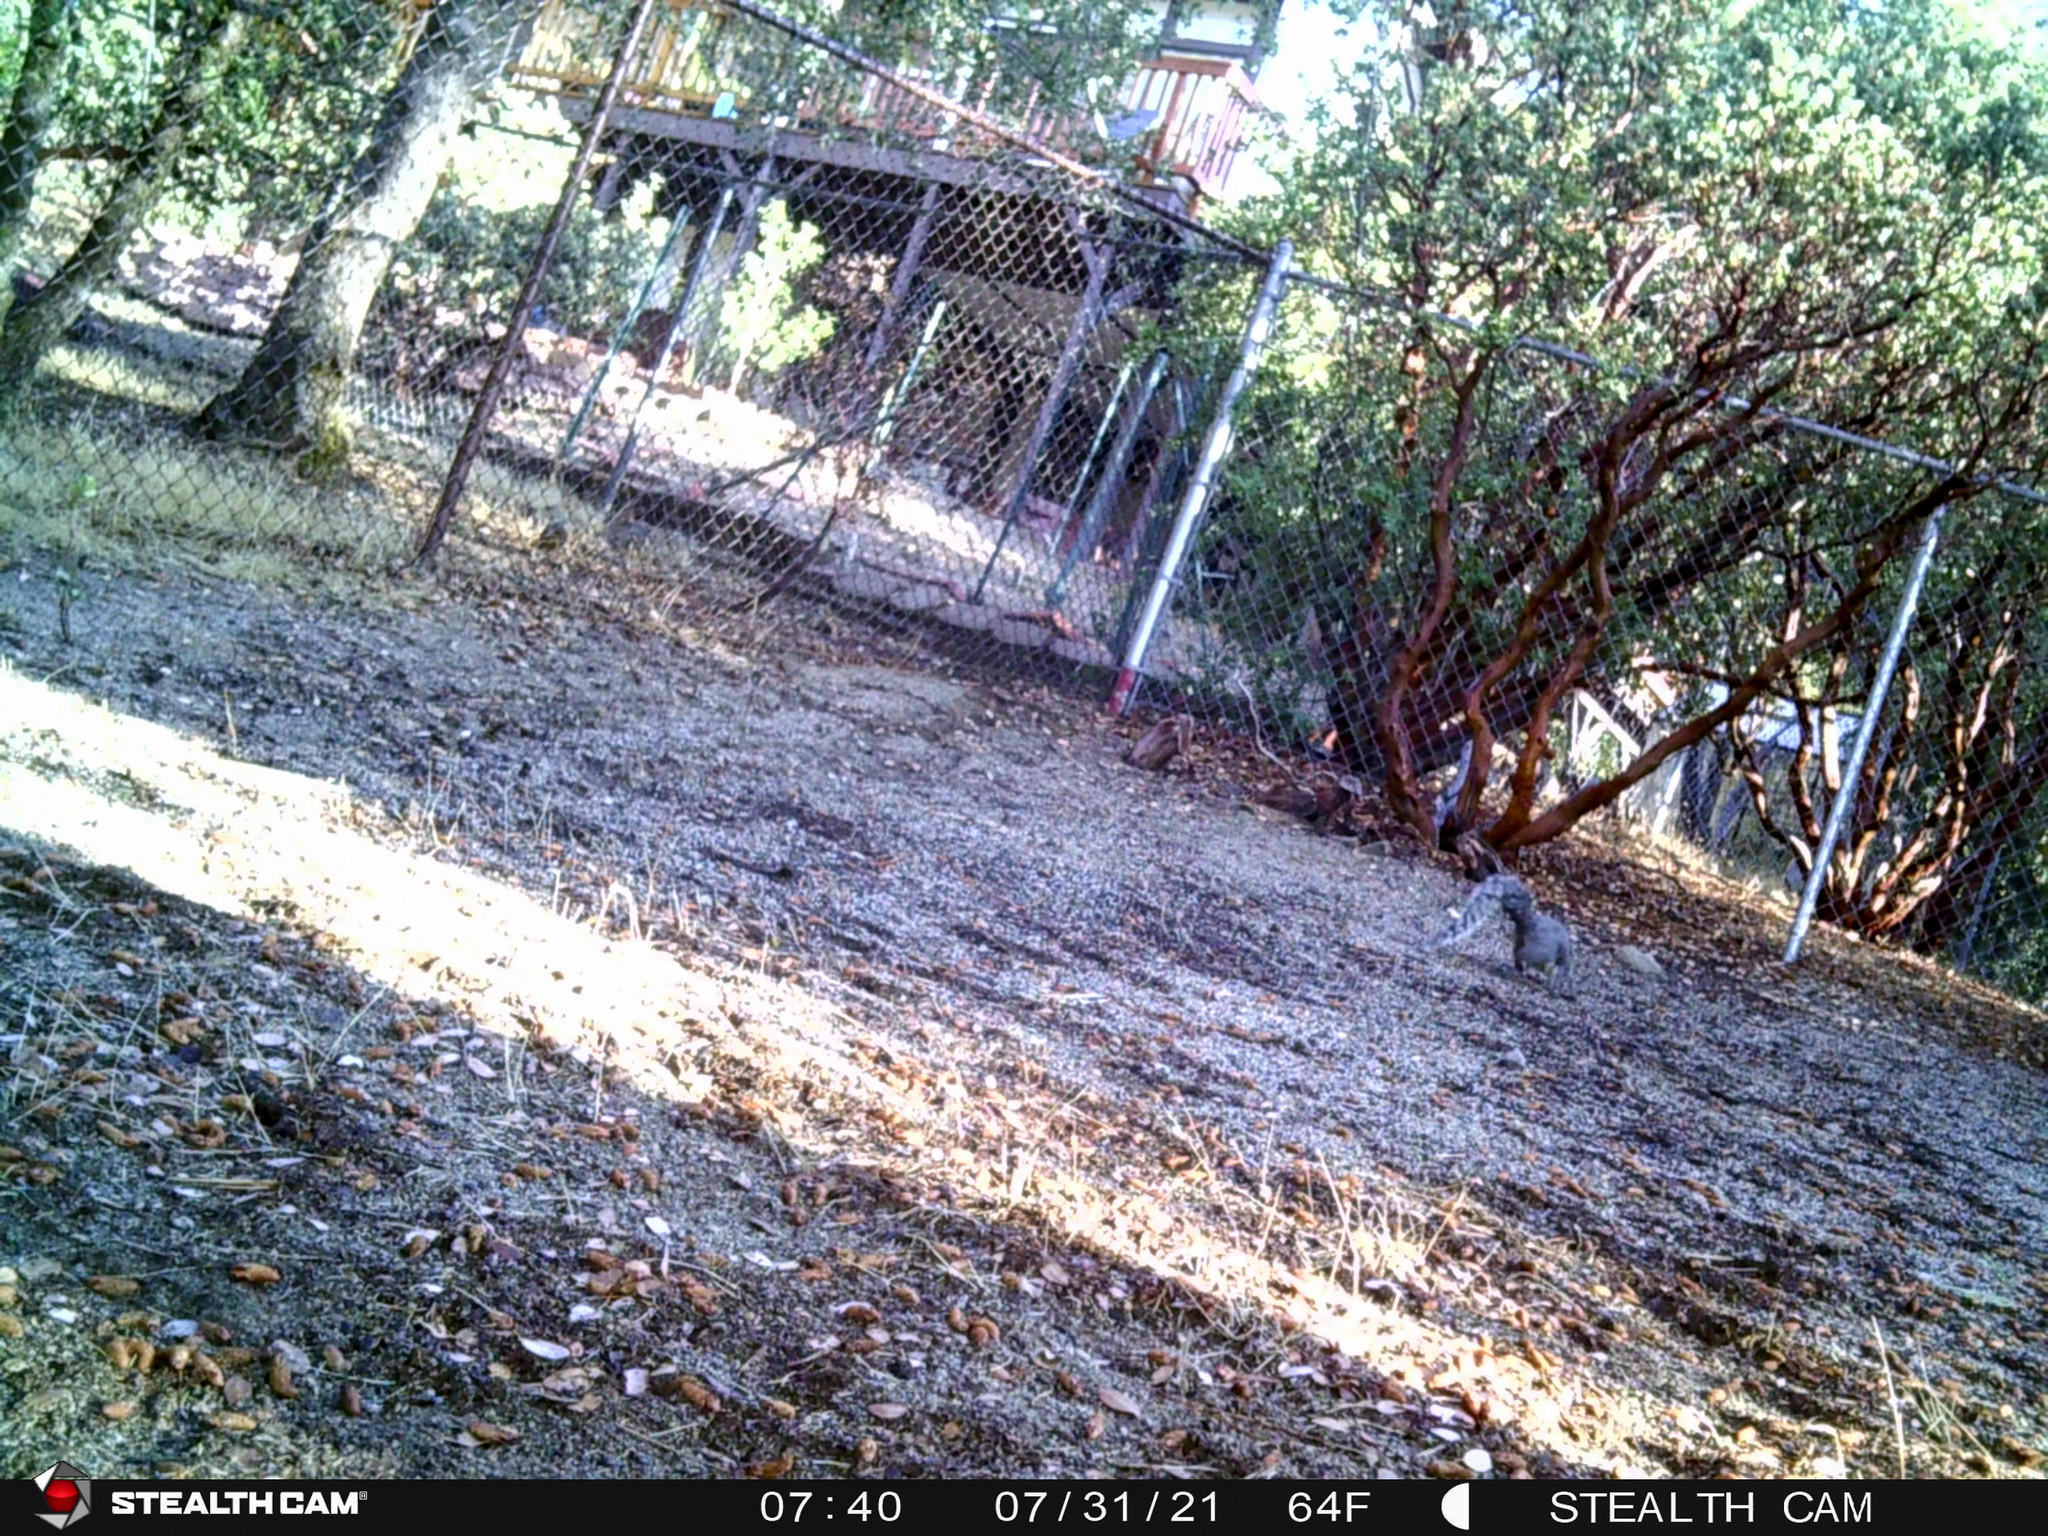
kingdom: Animalia
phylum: Chordata
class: Mammalia
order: Rodentia
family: Sciuridae
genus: Sciurus
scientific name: Sciurus griseus
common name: Western gray squirrel
